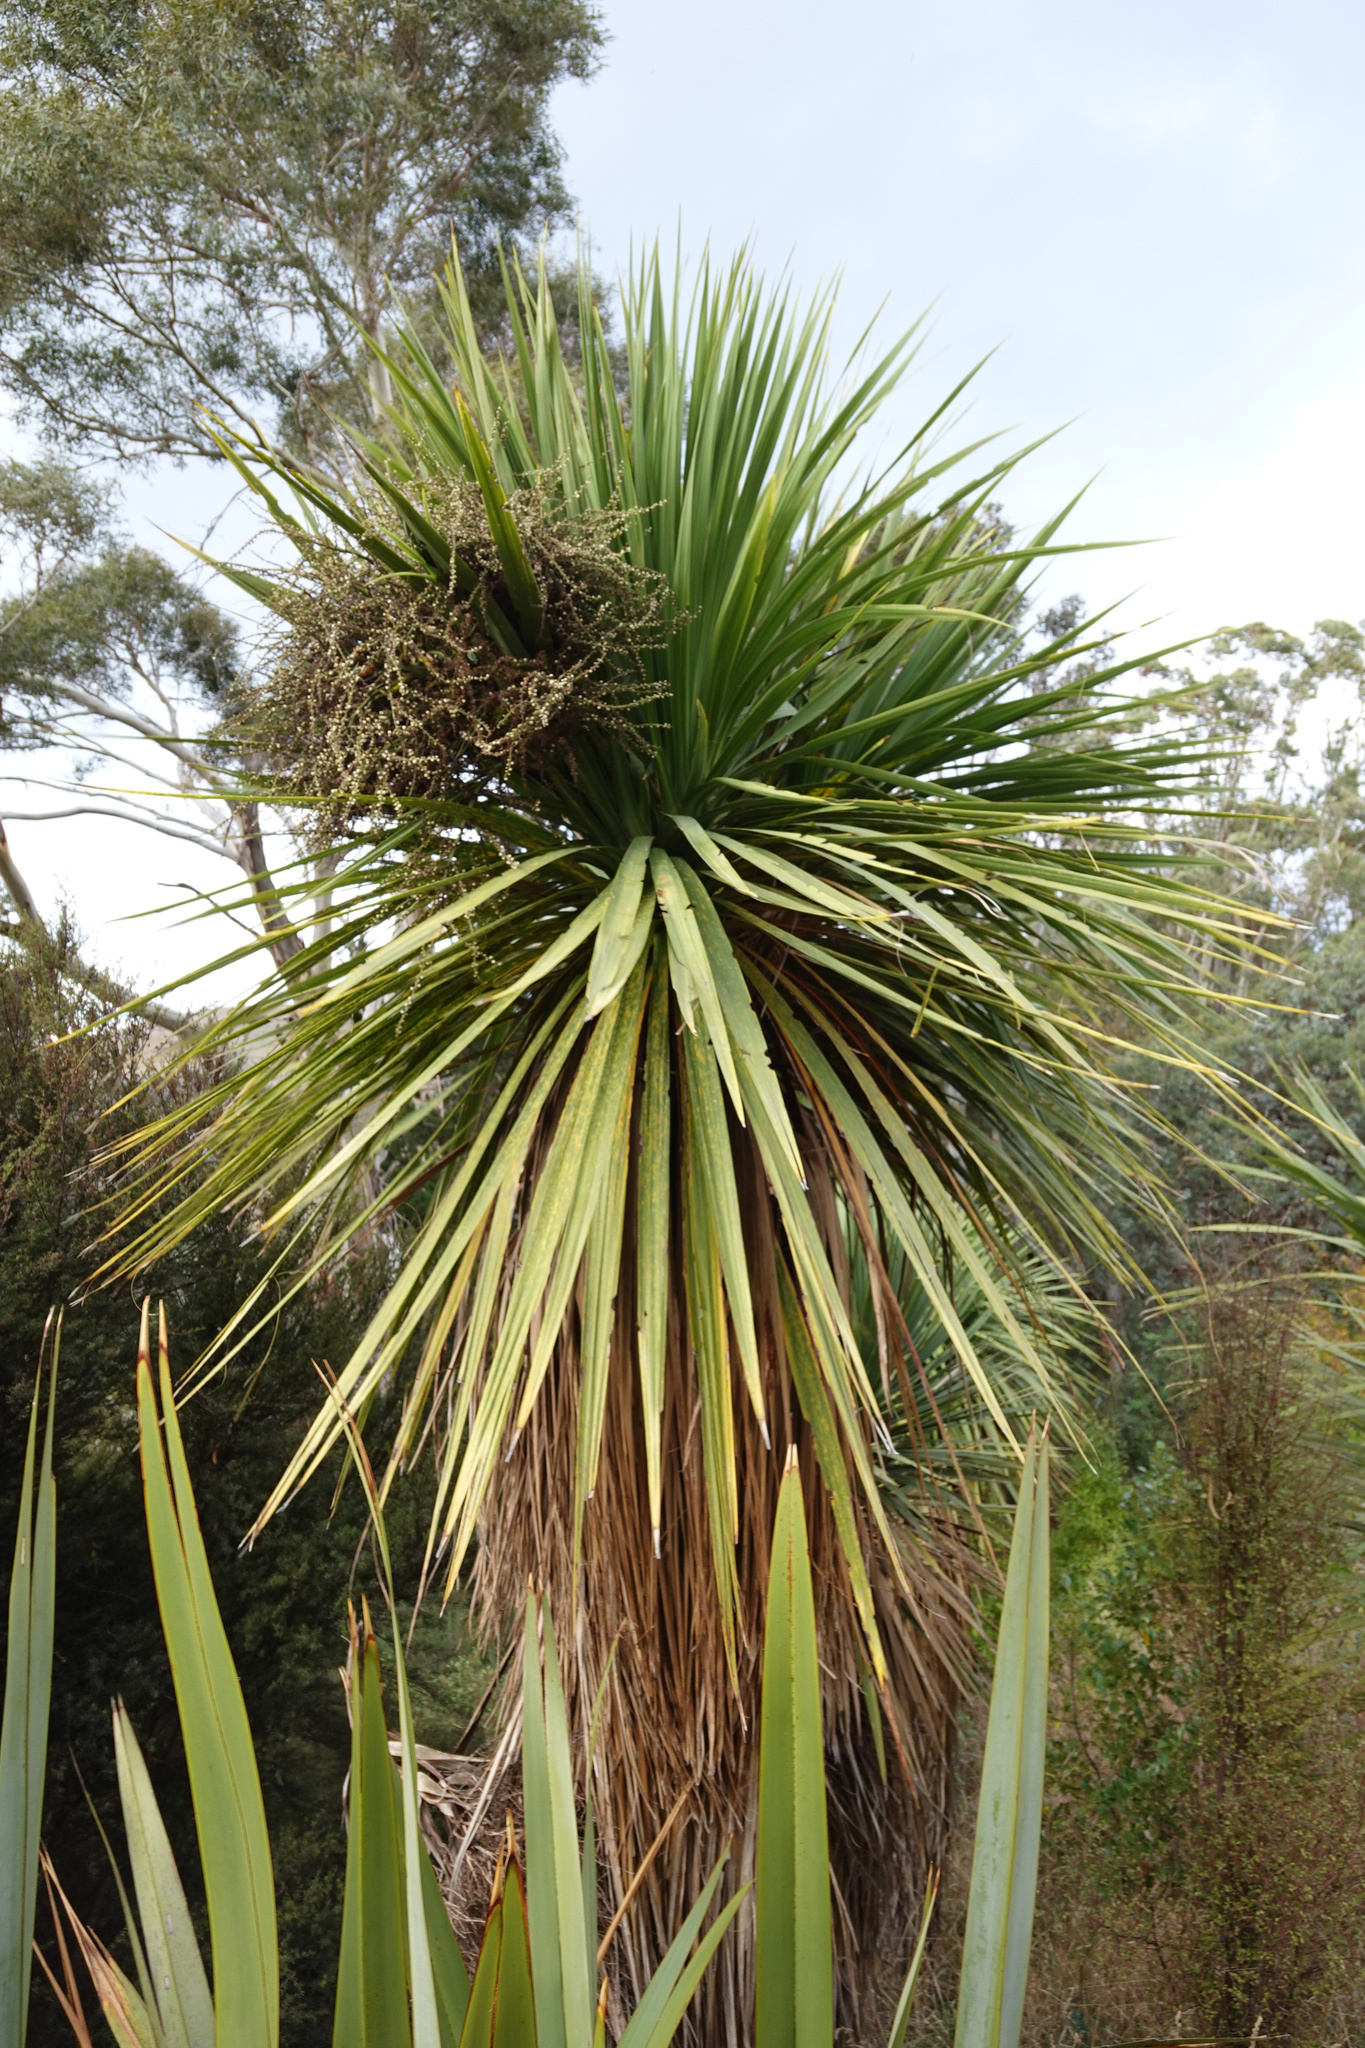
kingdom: Plantae
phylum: Tracheophyta
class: Liliopsida
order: Asparagales
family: Asparagaceae
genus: Cordyline
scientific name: Cordyline australis
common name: Cabbage-palm
